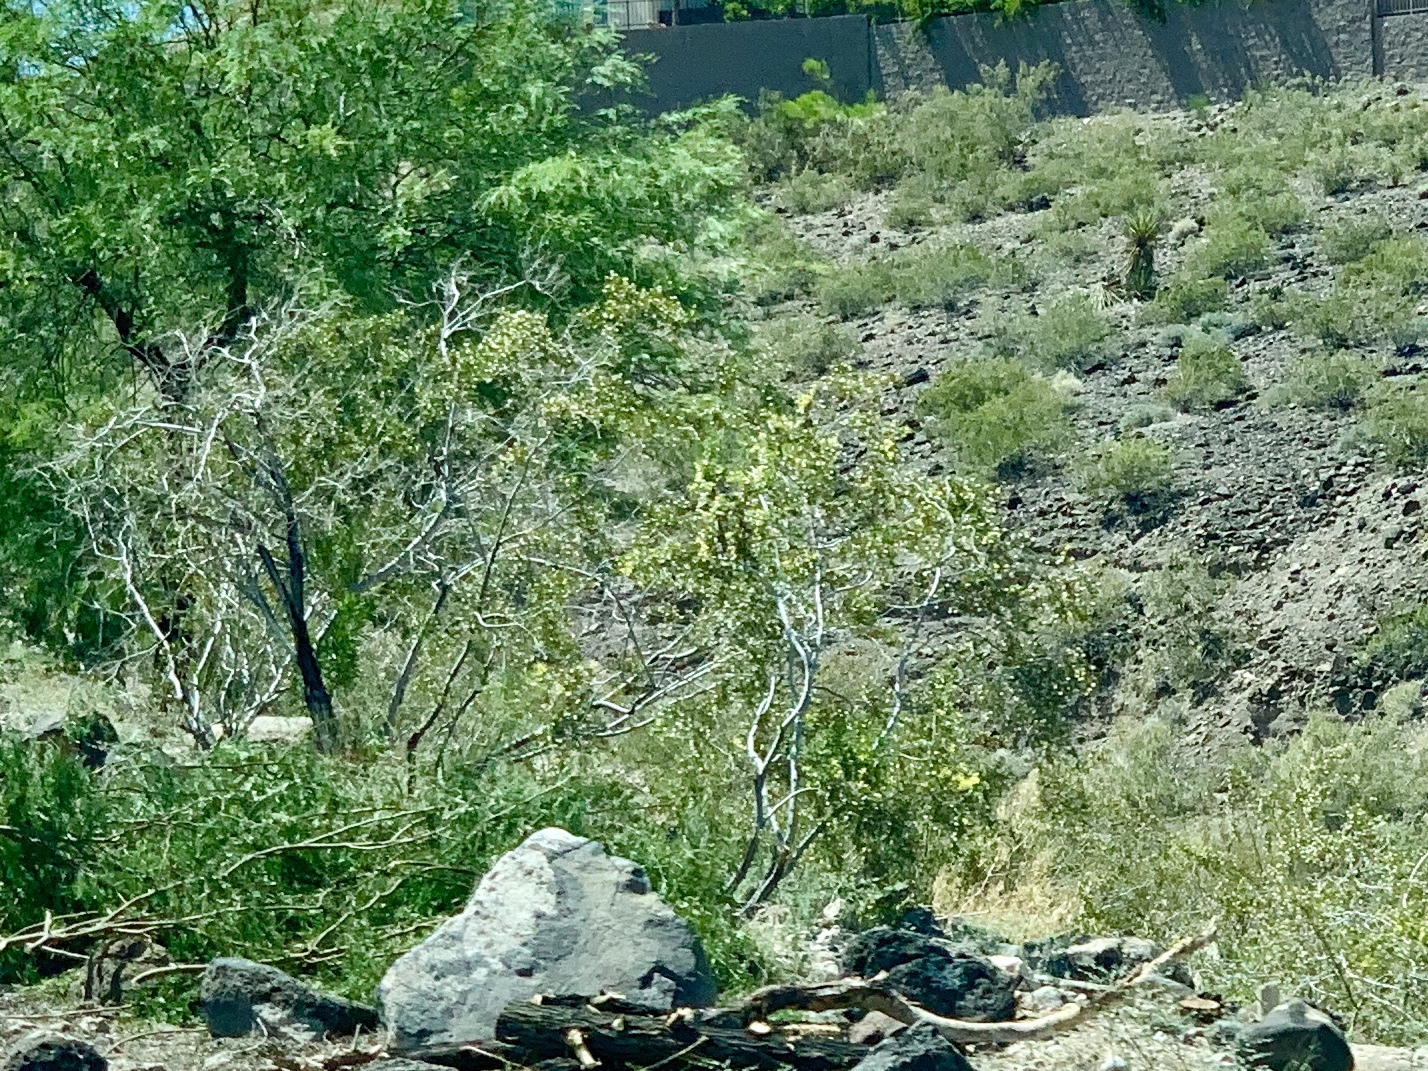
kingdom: Plantae
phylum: Tracheophyta
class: Magnoliopsida
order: Zygophyllales
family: Zygophyllaceae
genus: Larrea
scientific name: Larrea tridentata
